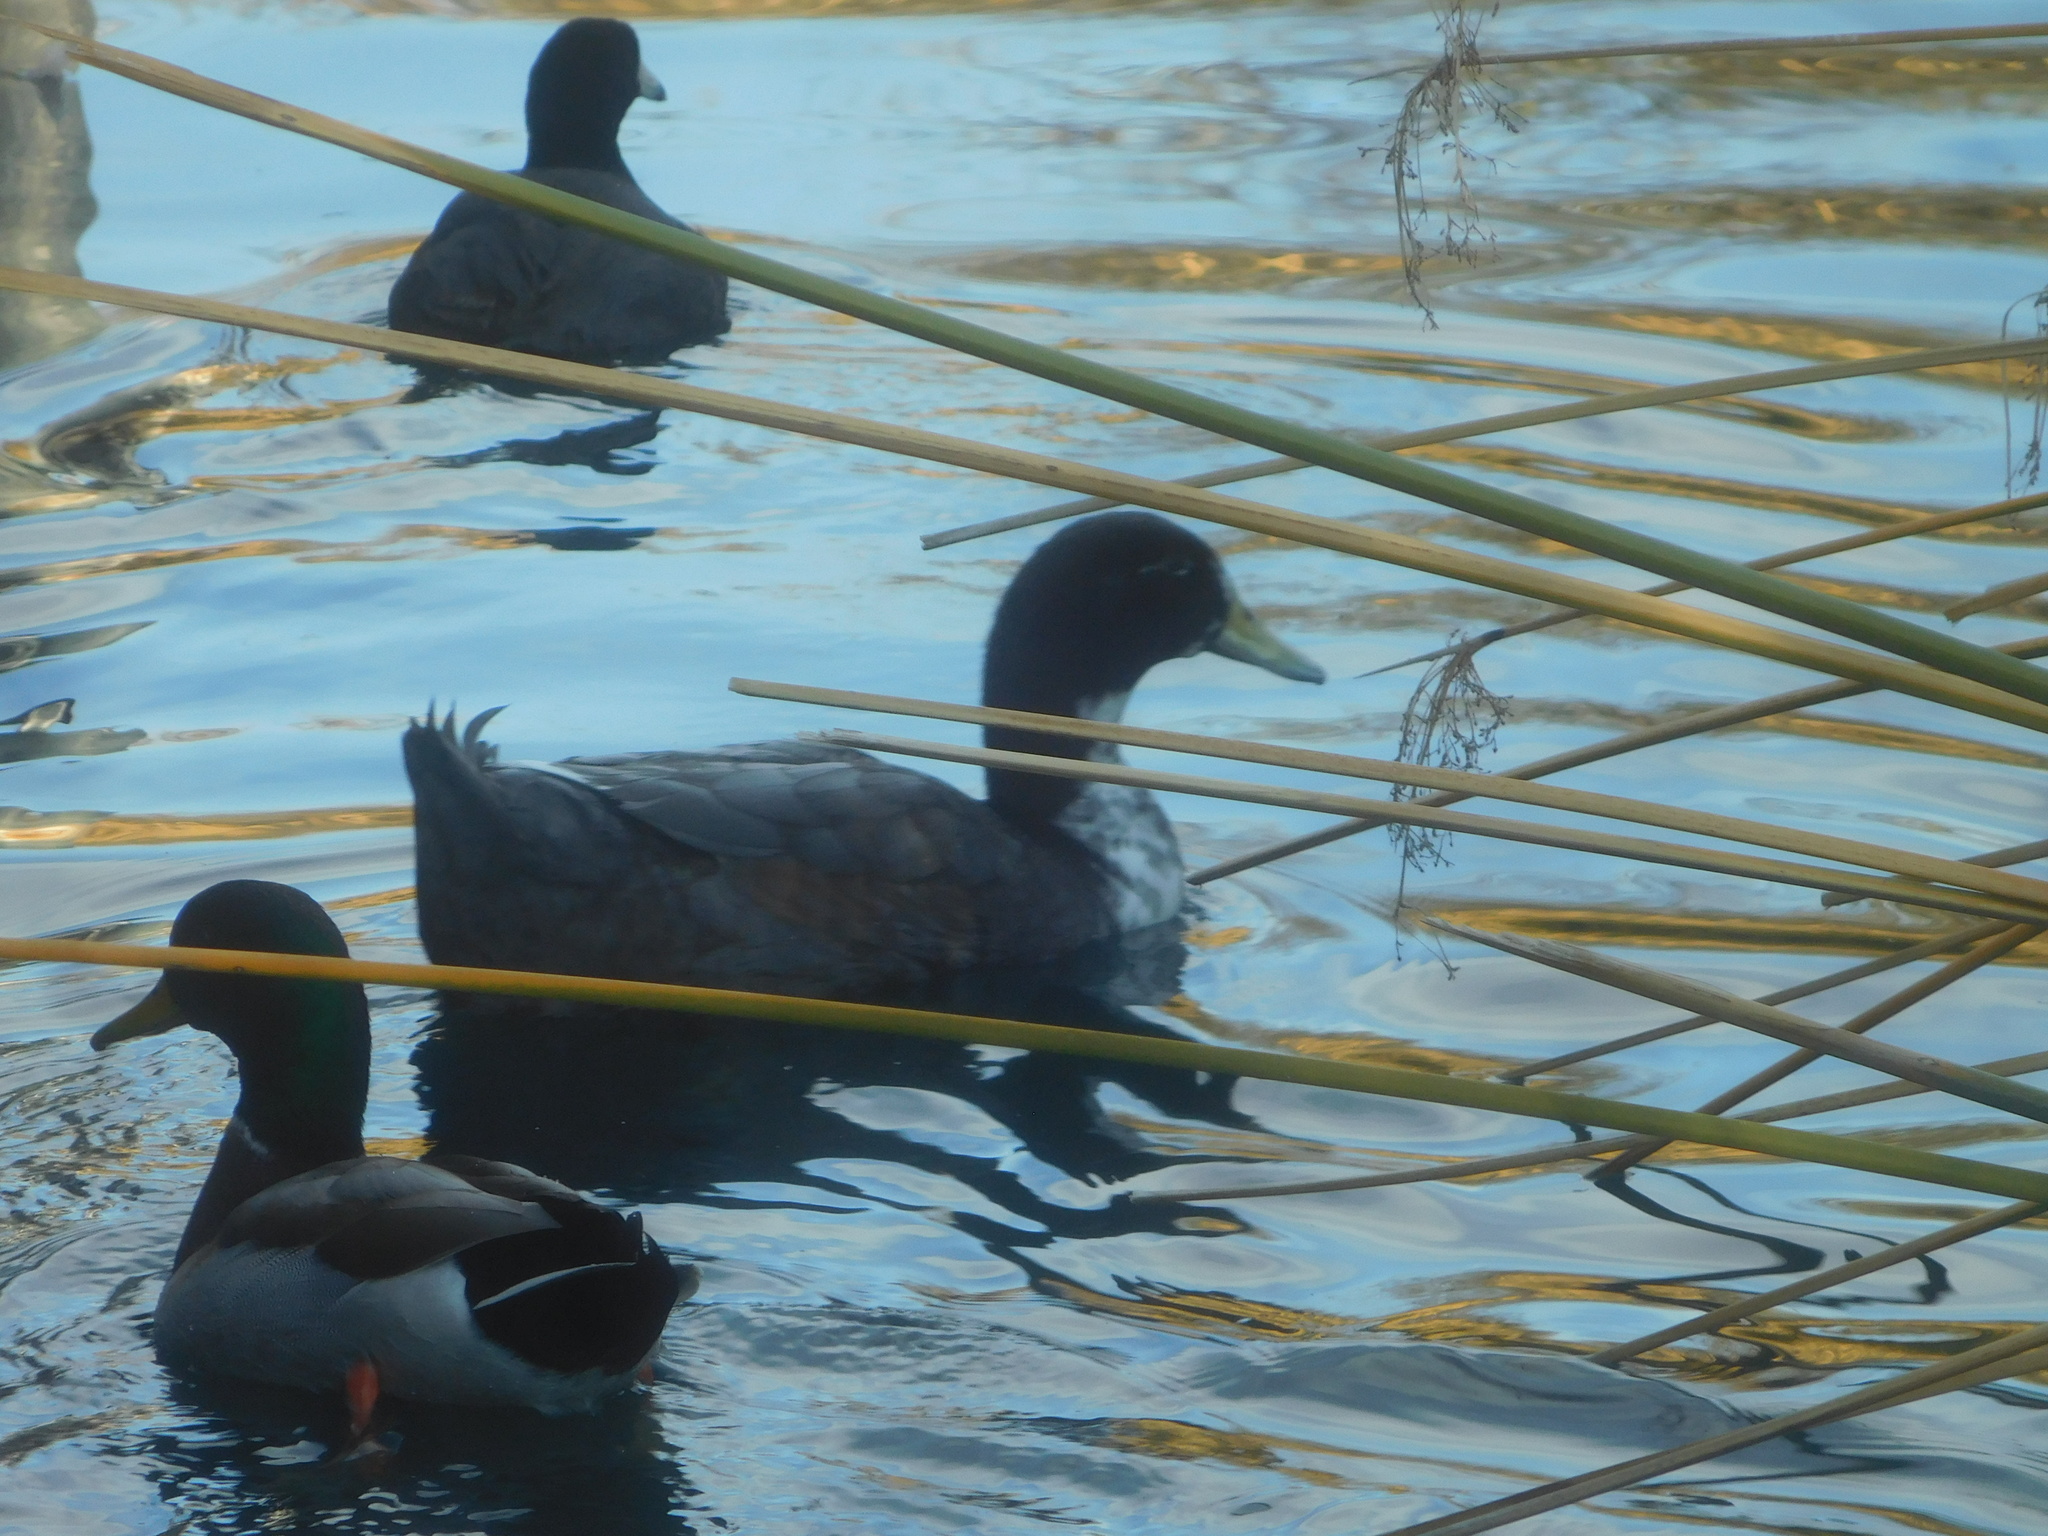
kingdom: Animalia
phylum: Chordata
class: Aves
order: Anseriformes
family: Anatidae
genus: Anas
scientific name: Anas platyrhynchos
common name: Mallard
